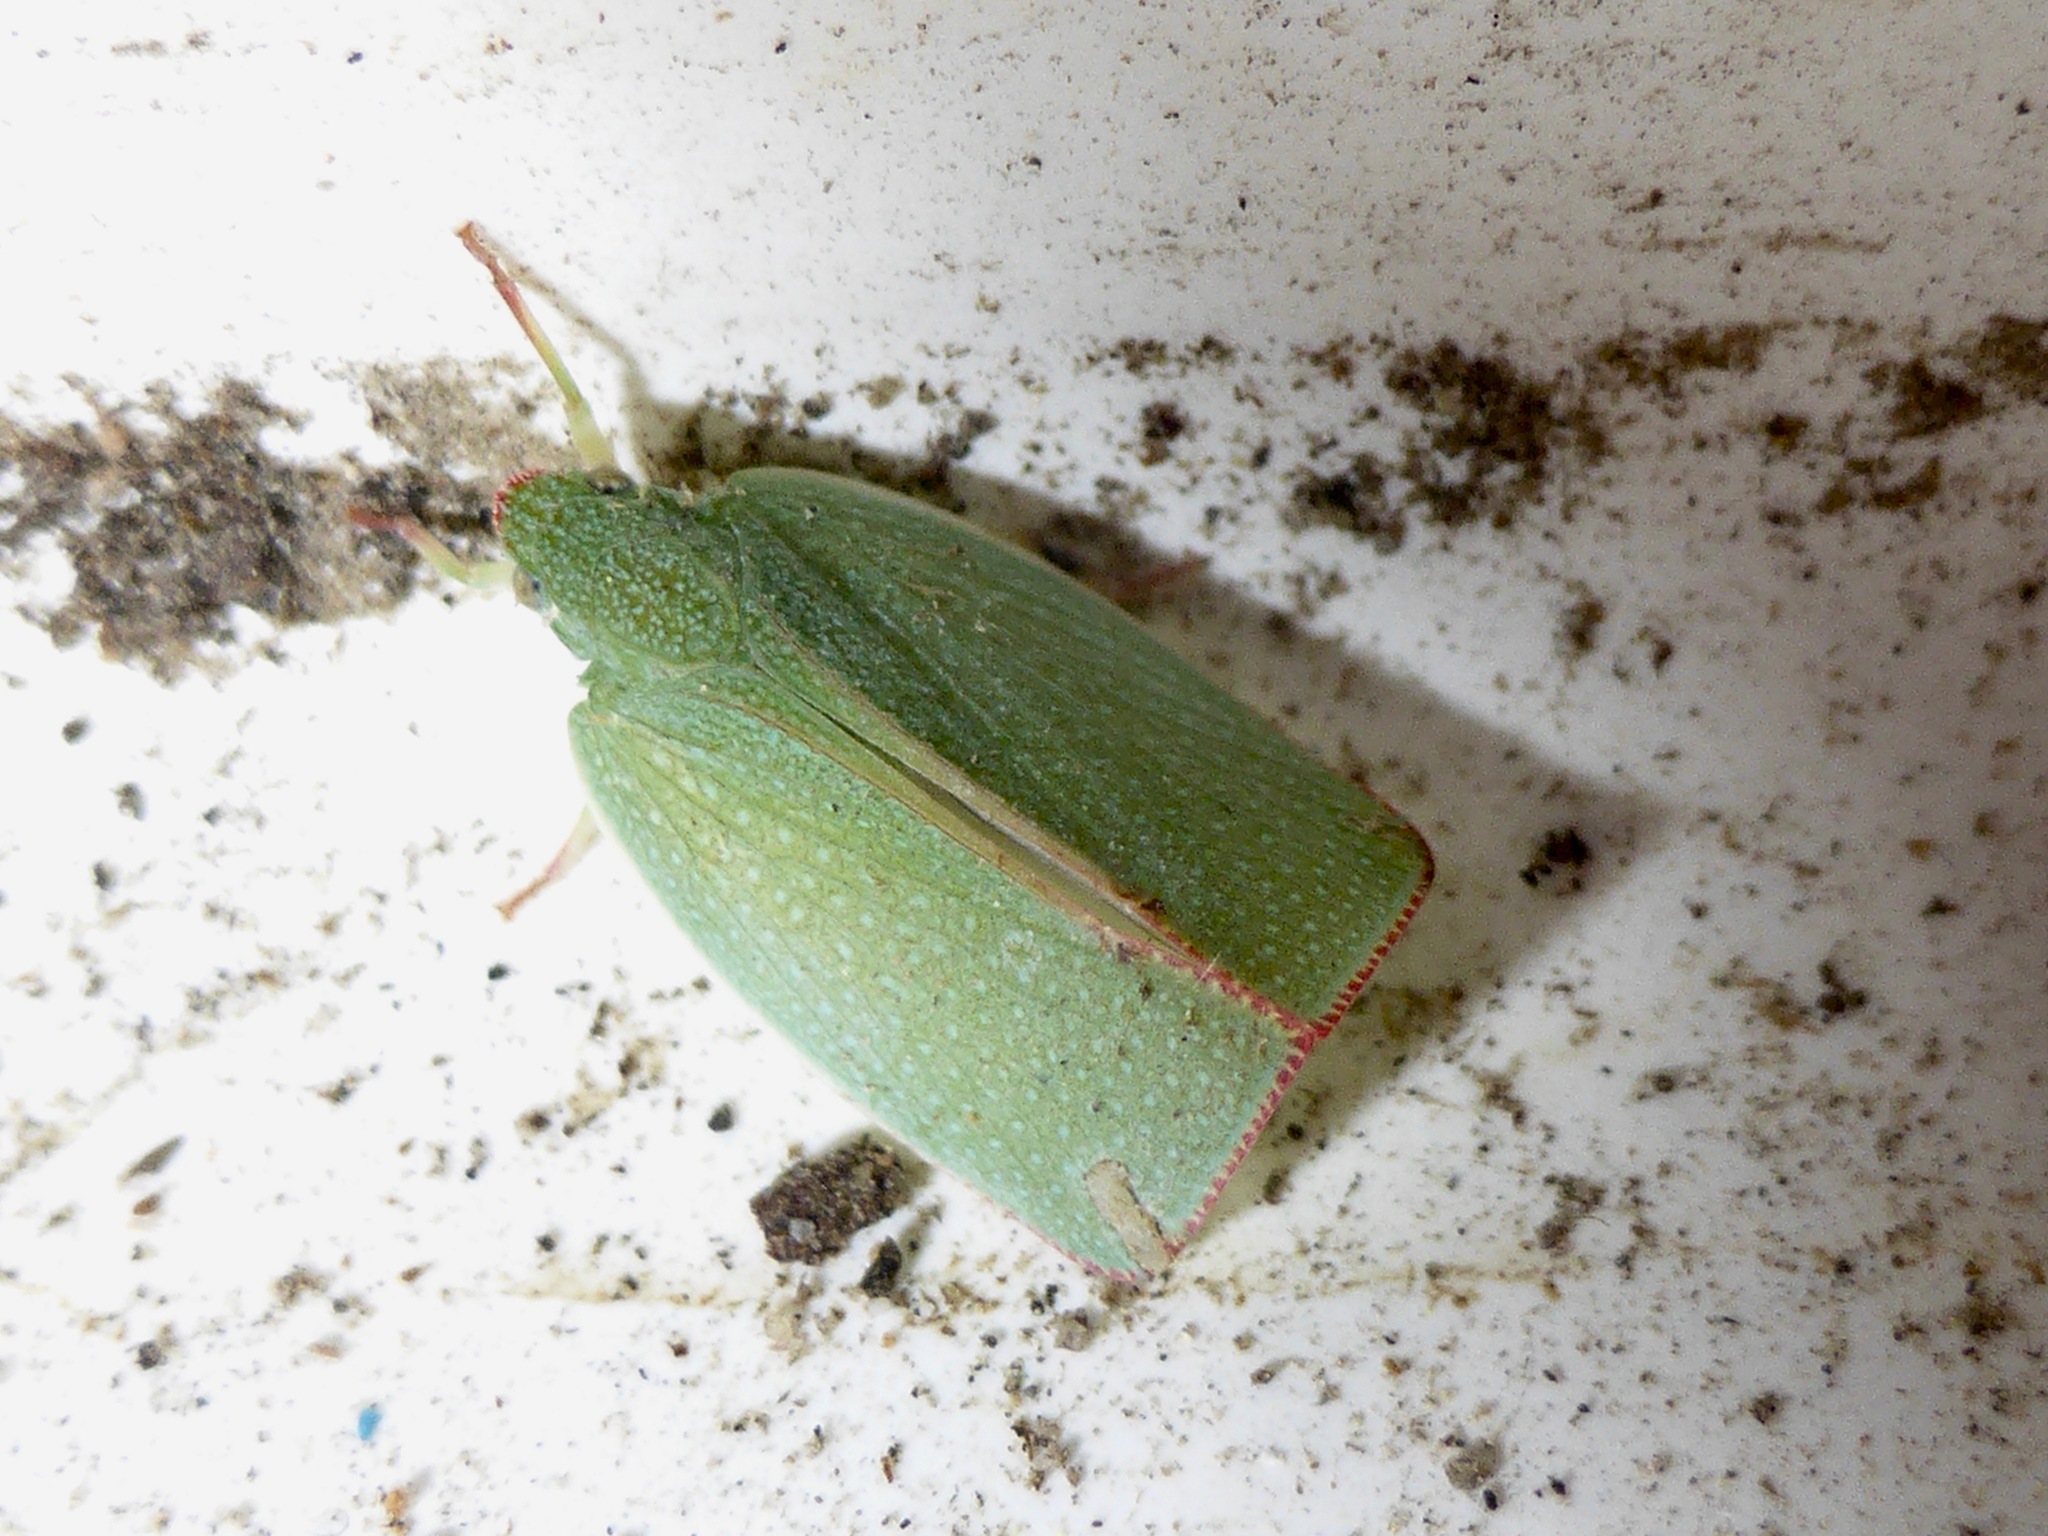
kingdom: Animalia
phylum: Arthropoda
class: Insecta
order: Hemiptera
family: Flatidae
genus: Siphanta
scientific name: Siphanta acuta
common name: Torpedo bug
